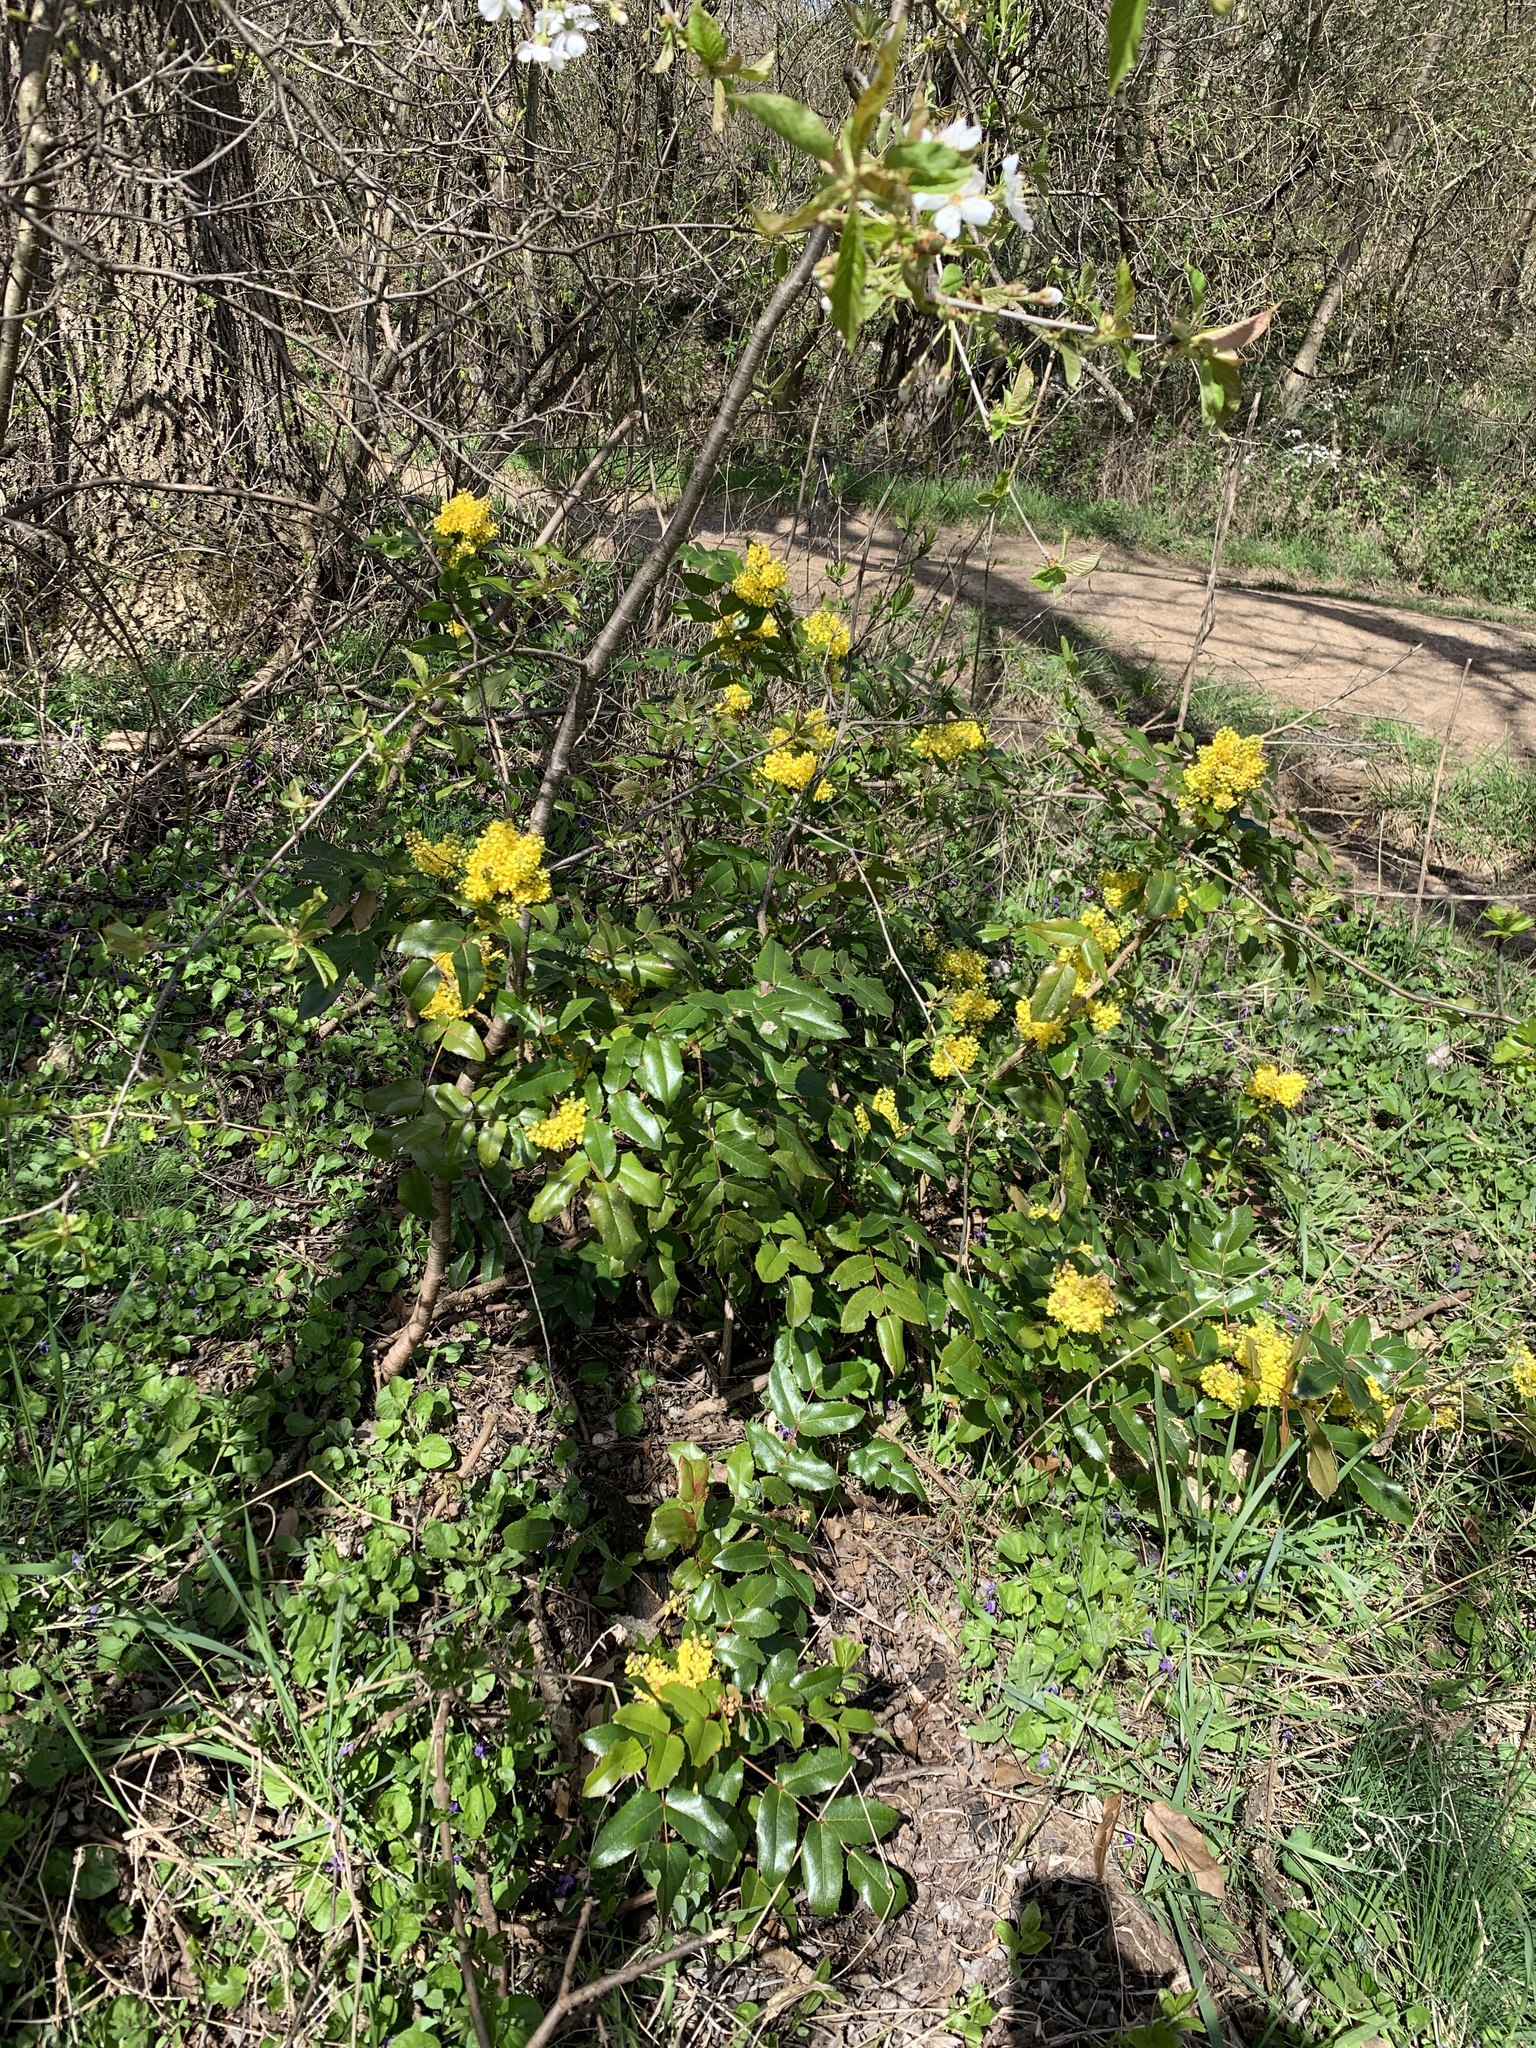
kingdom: Plantae
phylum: Tracheophyta
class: Magnoliopsida
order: Ranunculales
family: Berberidaceae
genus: Mahonia
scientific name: Mahonia aquifolium
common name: Oregon-grape
